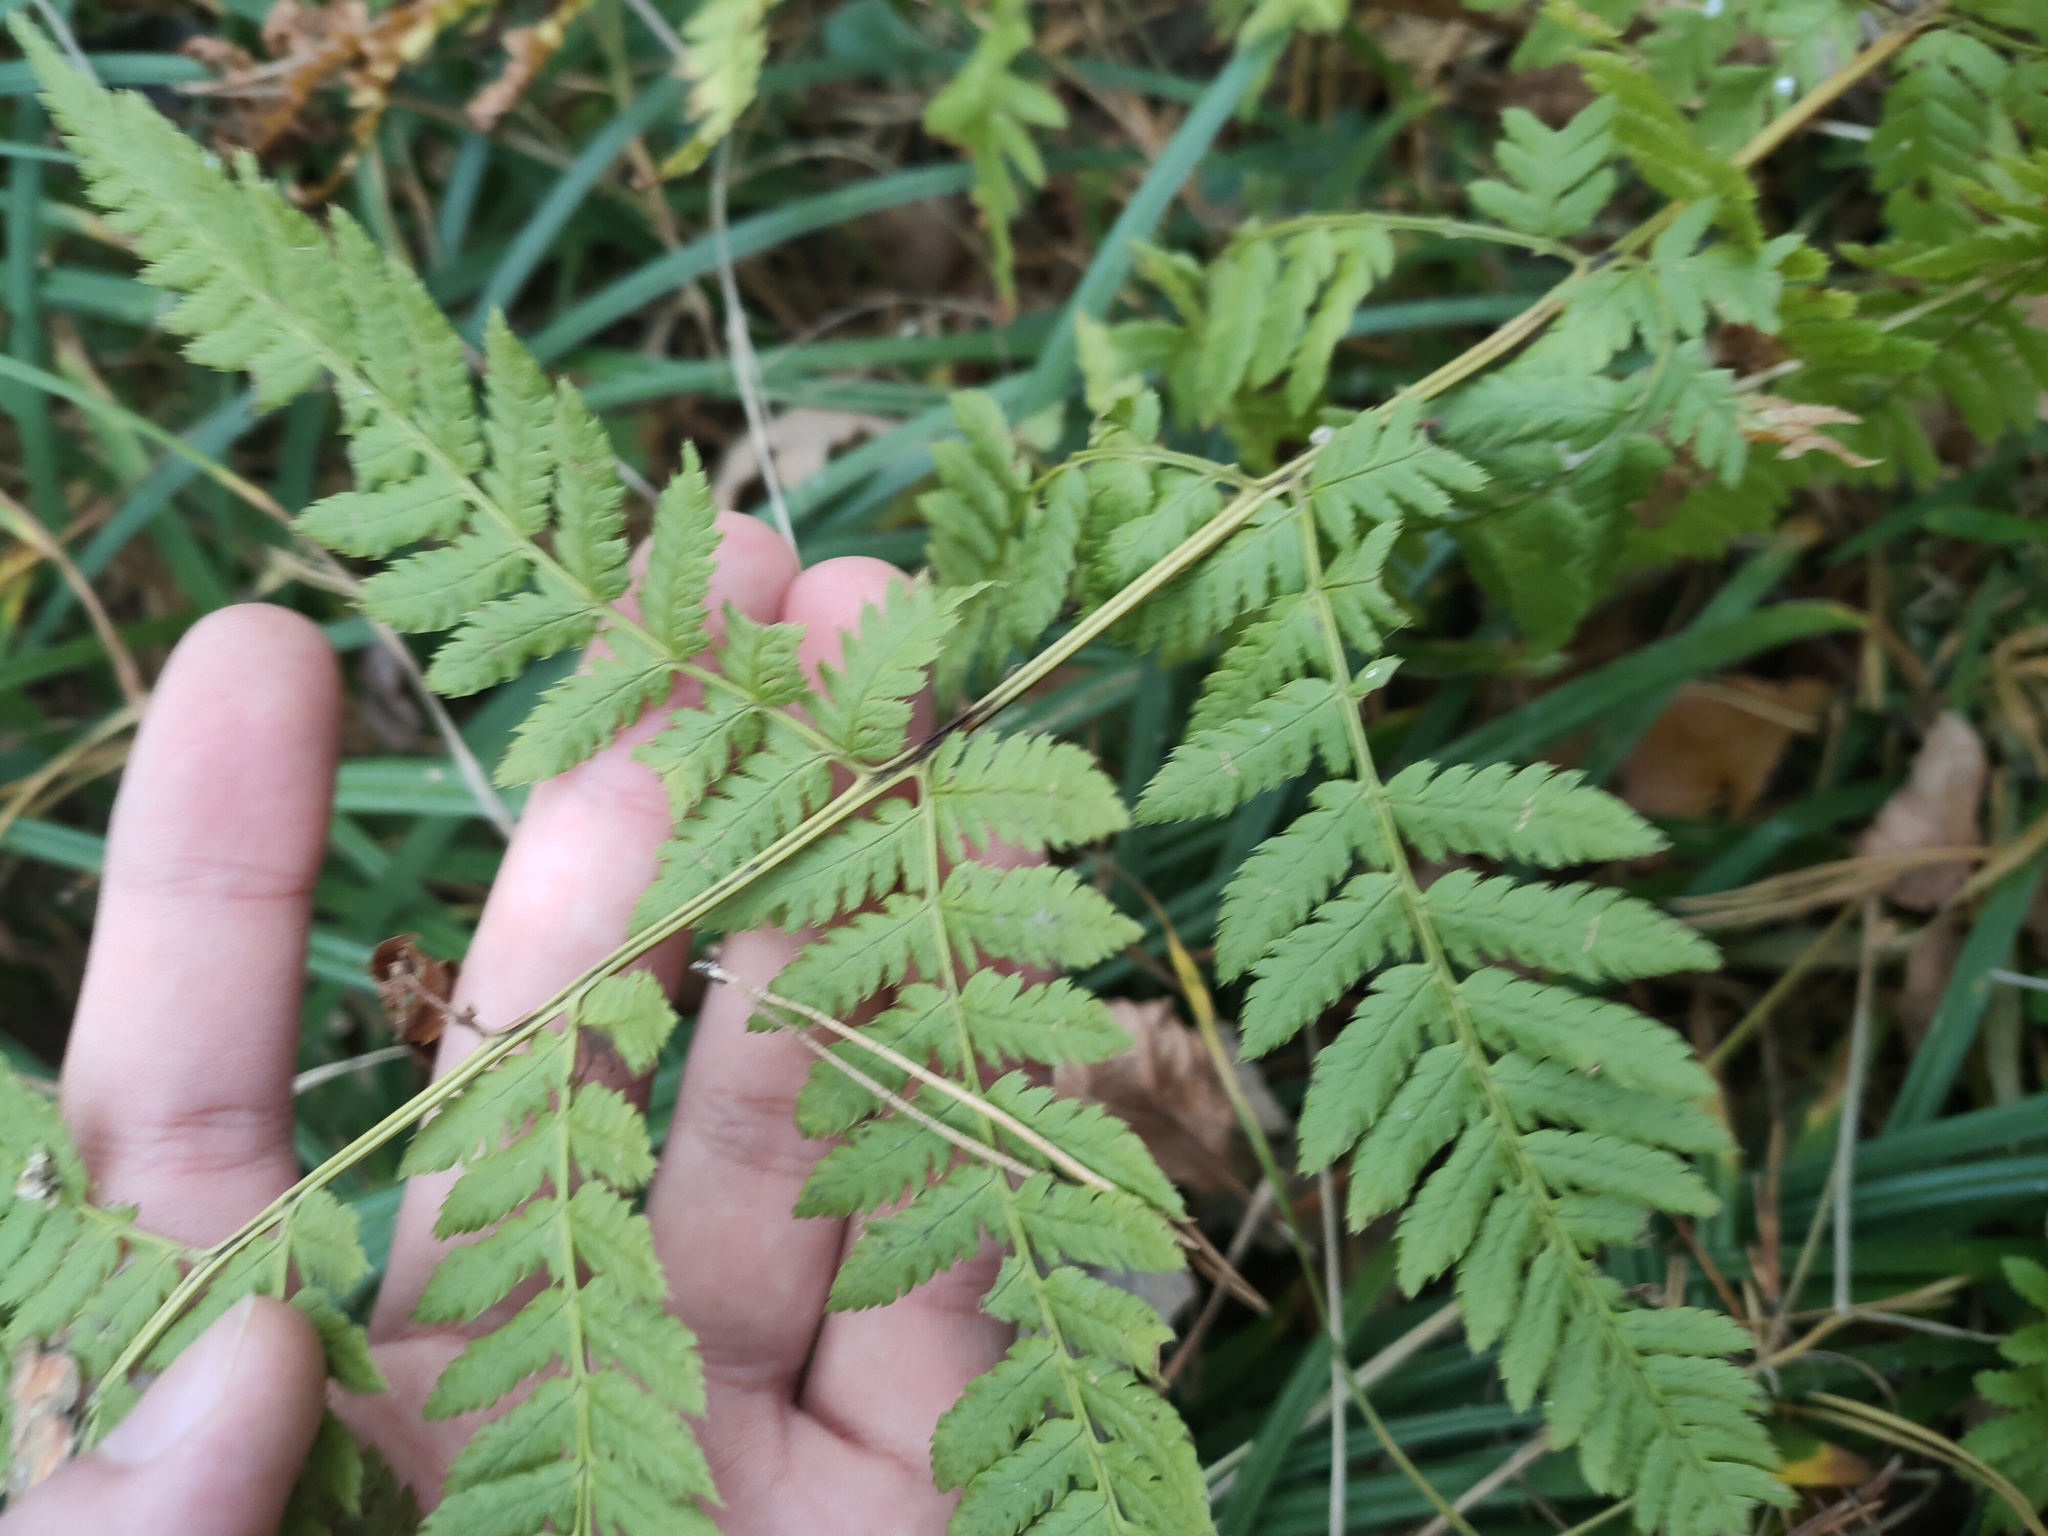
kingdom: Plantae
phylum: Tracheophyta
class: Polypodiopsida
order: Polypodiales
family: Dryopteridaceae
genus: Dryopteris
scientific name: Dryopteris carthusiana
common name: Narrow buckler-fern
